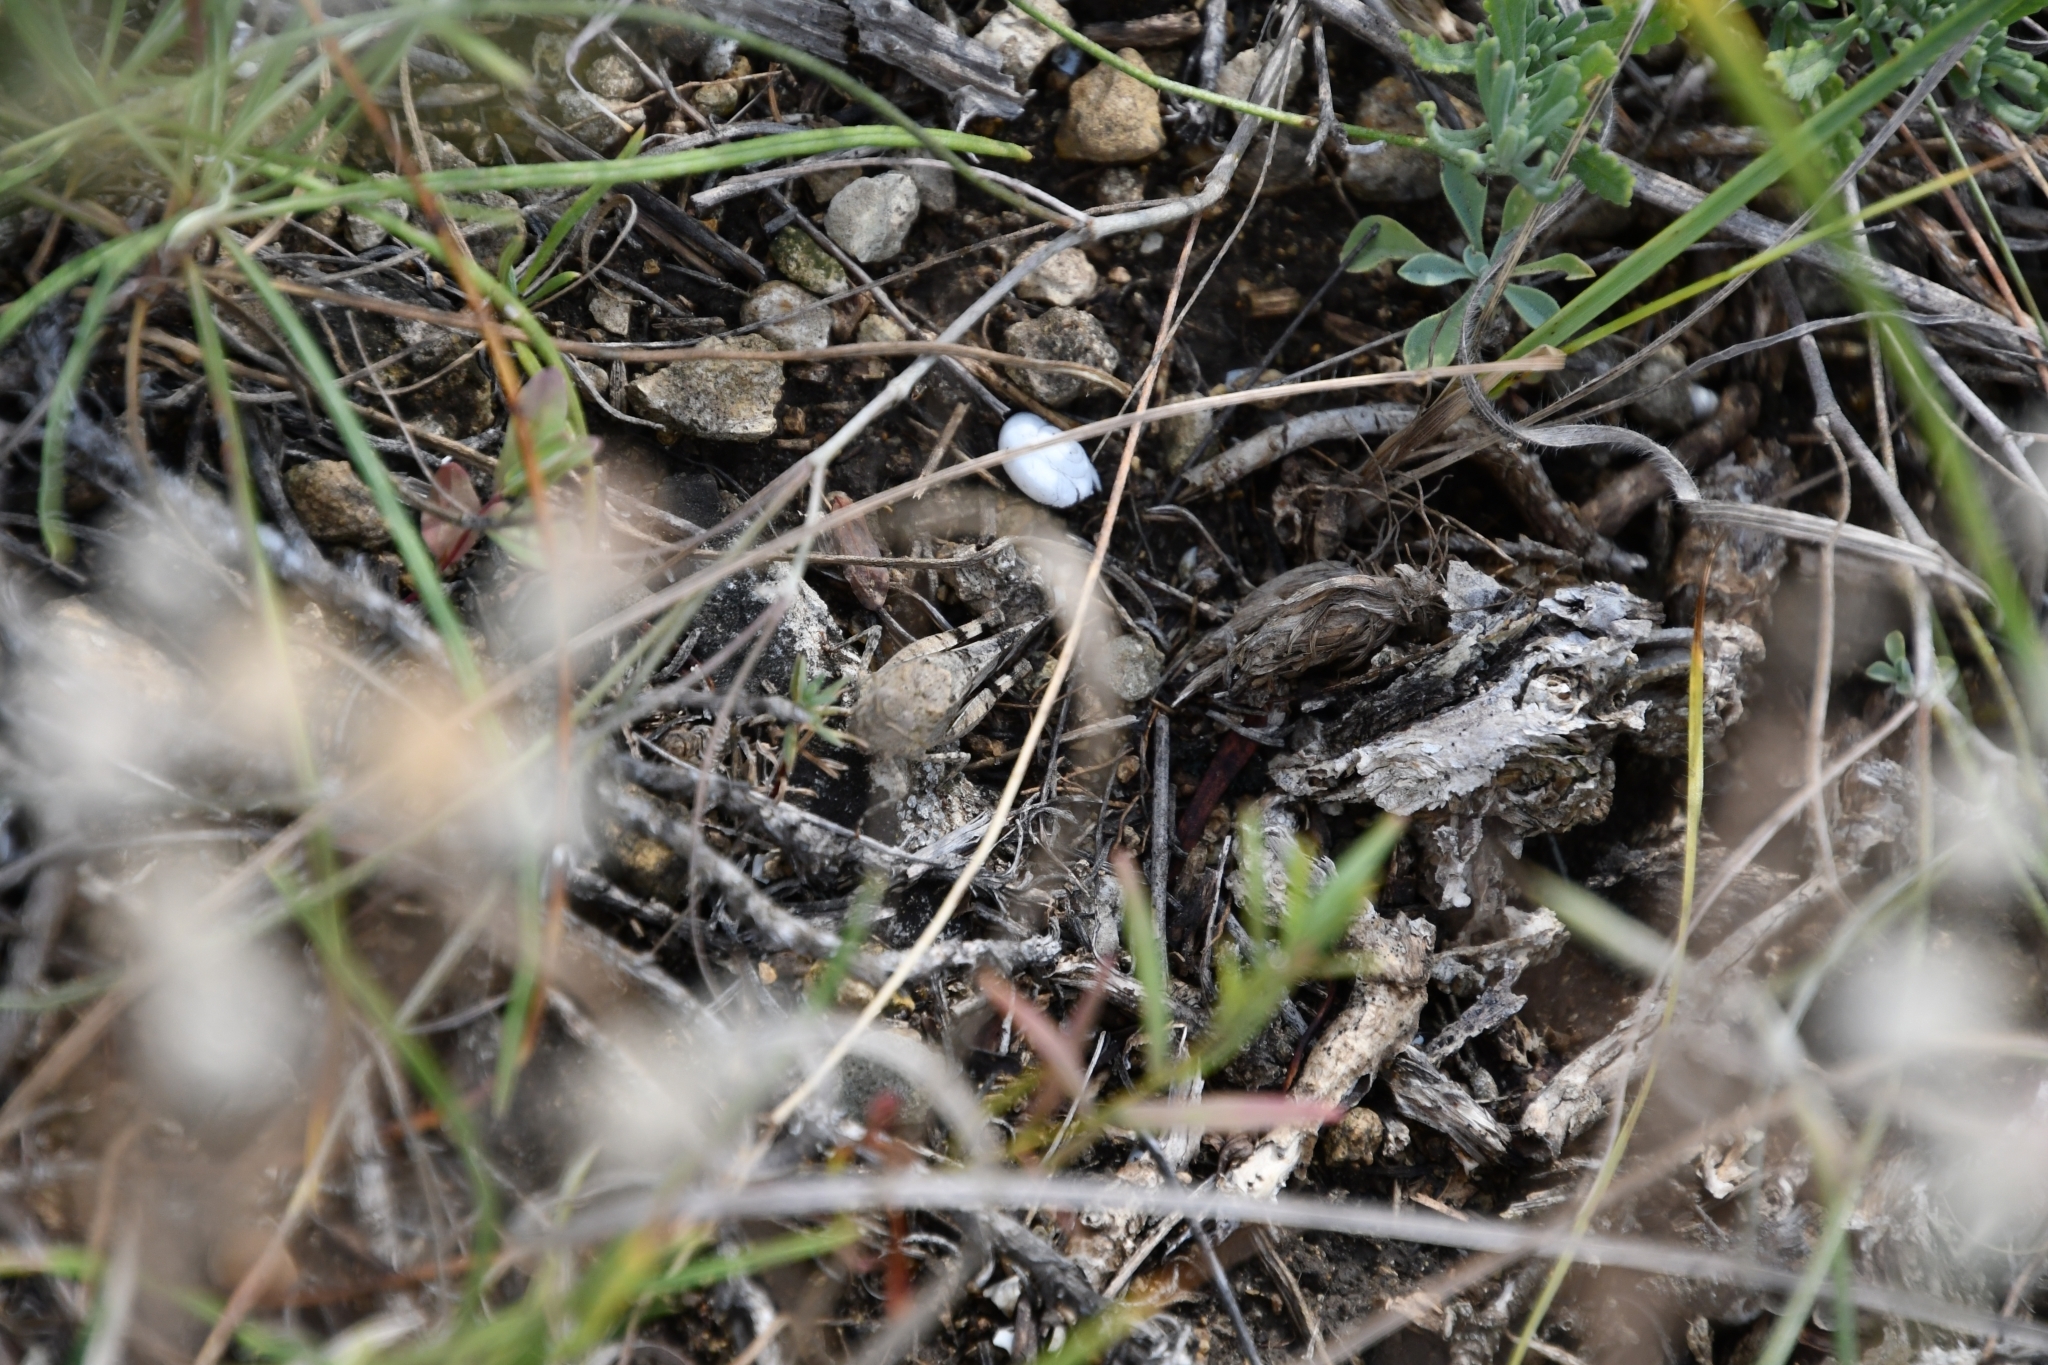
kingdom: Animalia
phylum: Arthropoda
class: Insecta
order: Orthoptera
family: Acrididae
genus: Oedipoda
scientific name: Oedipoda caerulescens
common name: Blue-winged grasshopper
